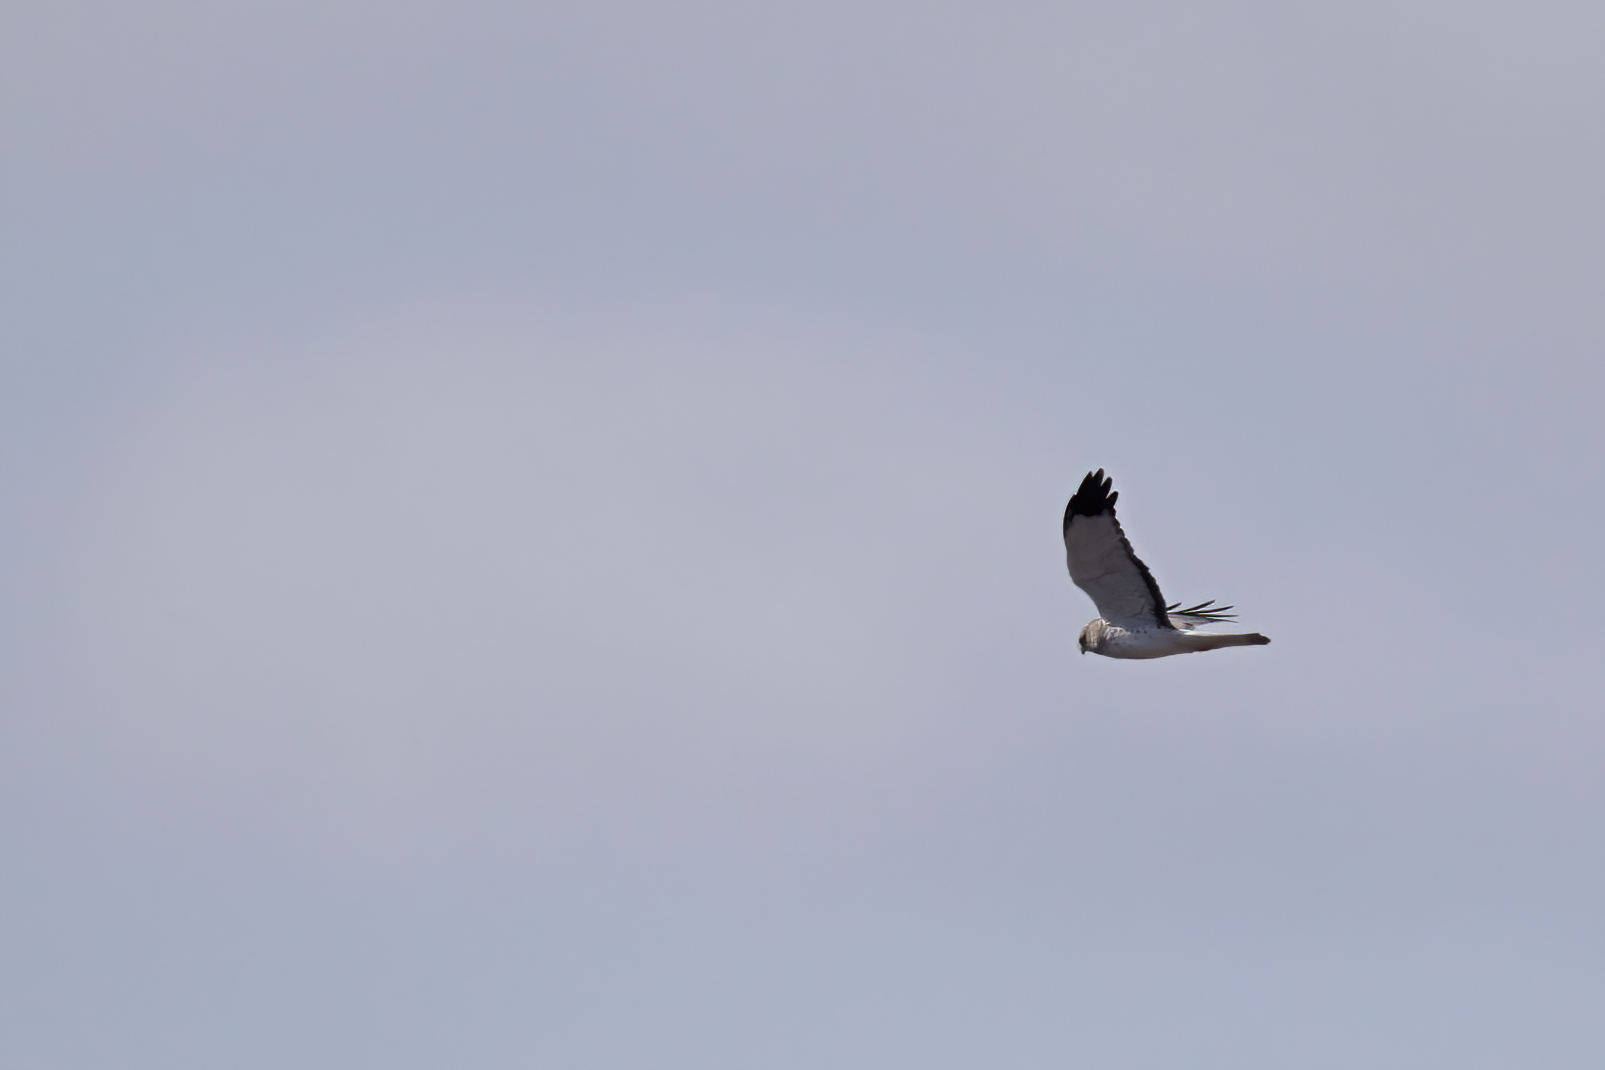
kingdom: Animalia
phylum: Chordata
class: Aves
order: Accipitriformes
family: Accipitridae
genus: Circus
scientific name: Circus cyaneus
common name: Hen harrier
